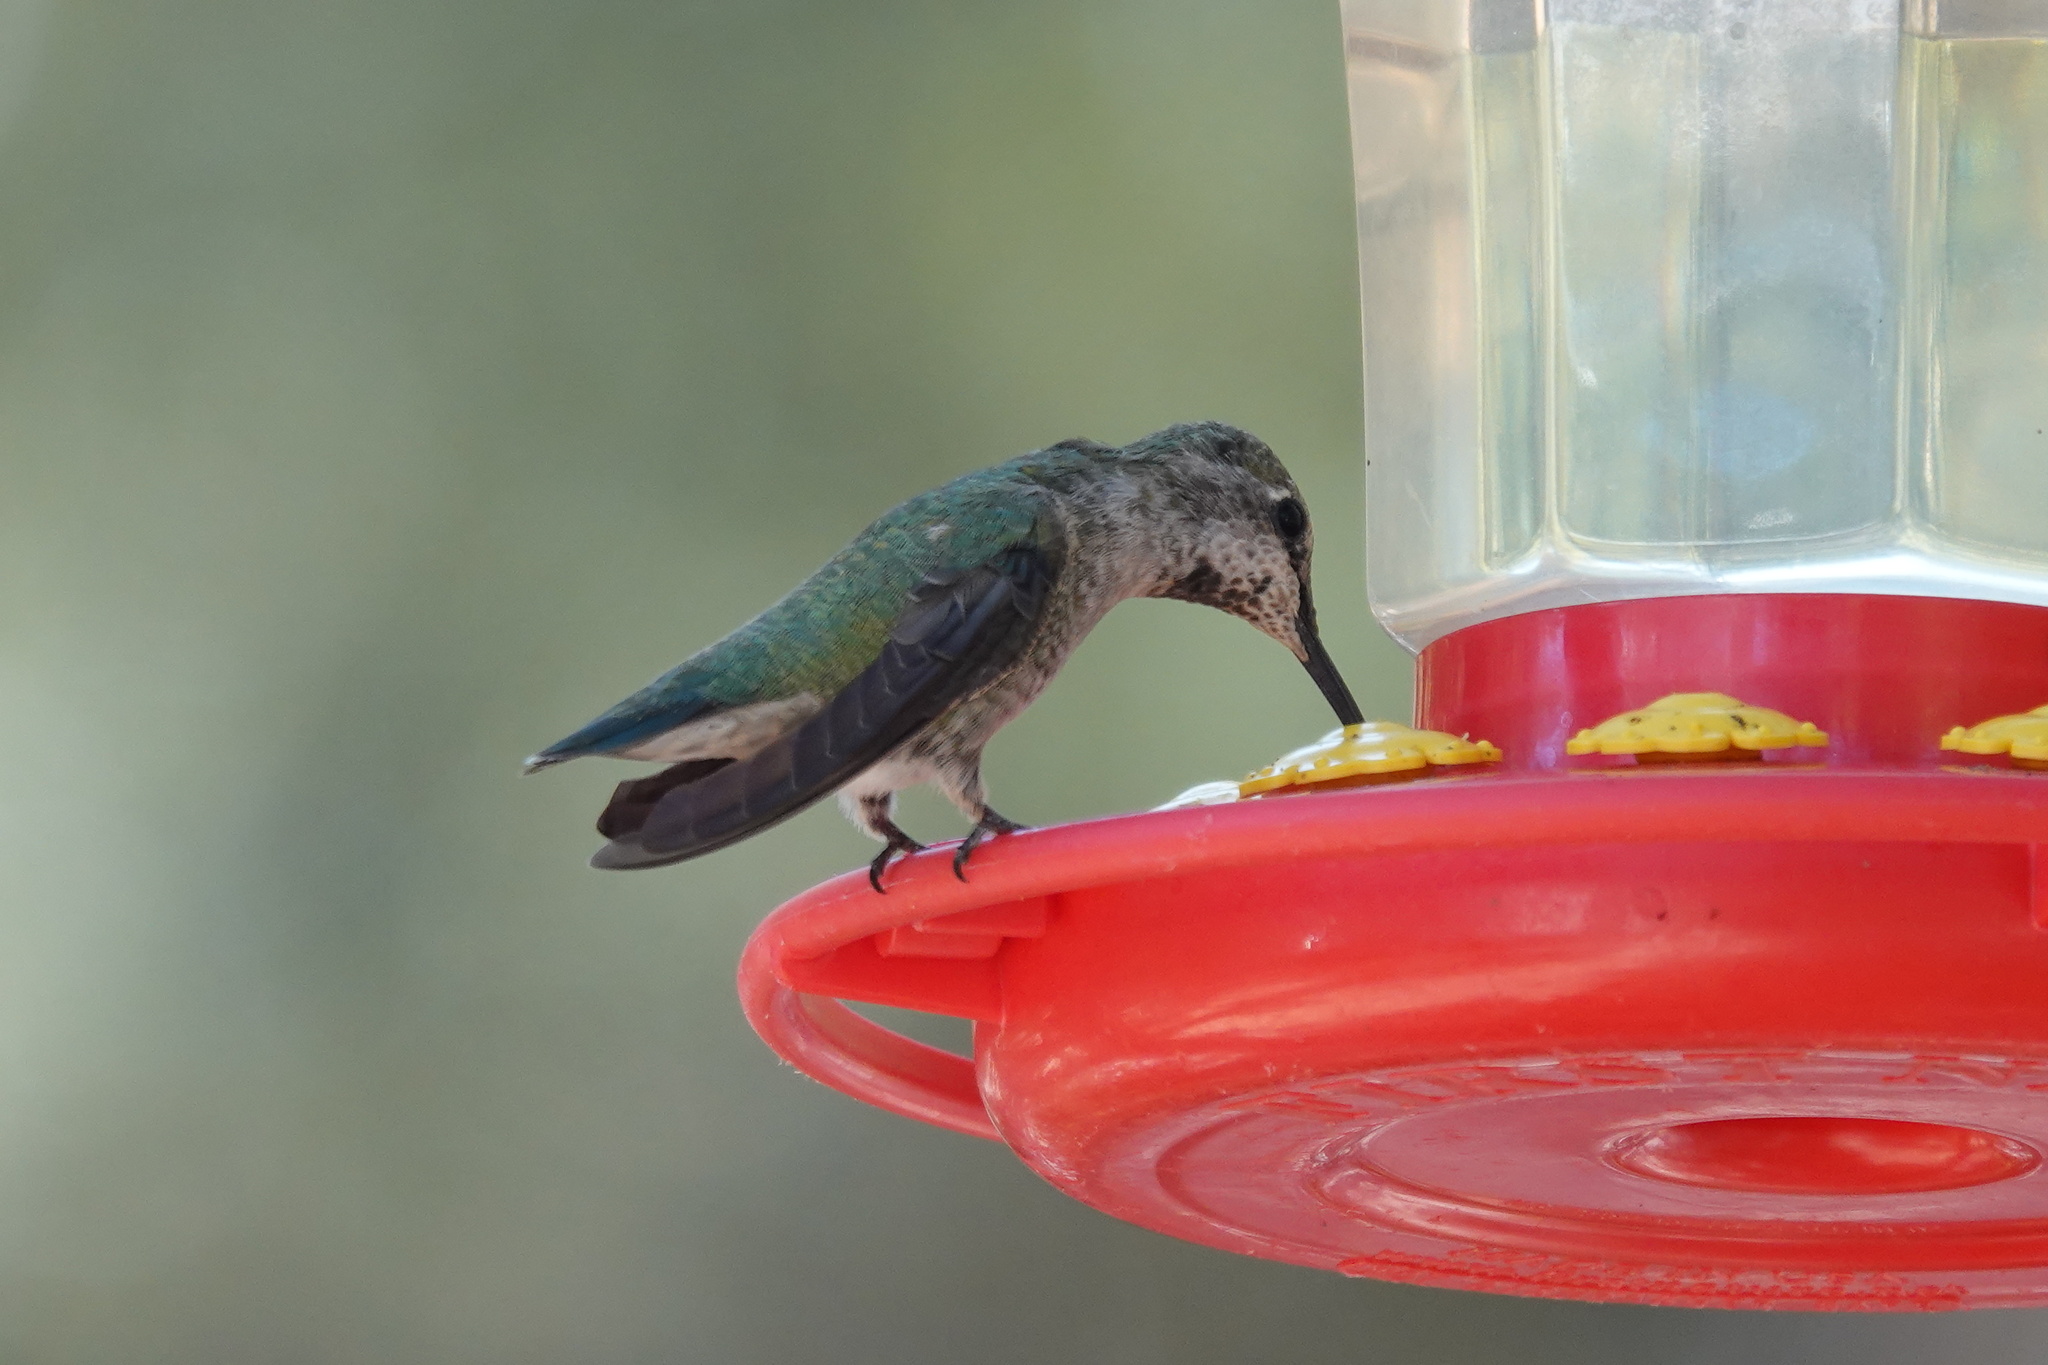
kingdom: Animalia
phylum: Chordata
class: Aves
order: Apodiformes
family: Trochilidae
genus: Calypte
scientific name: Calypte anna
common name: Anna's hummingbird
